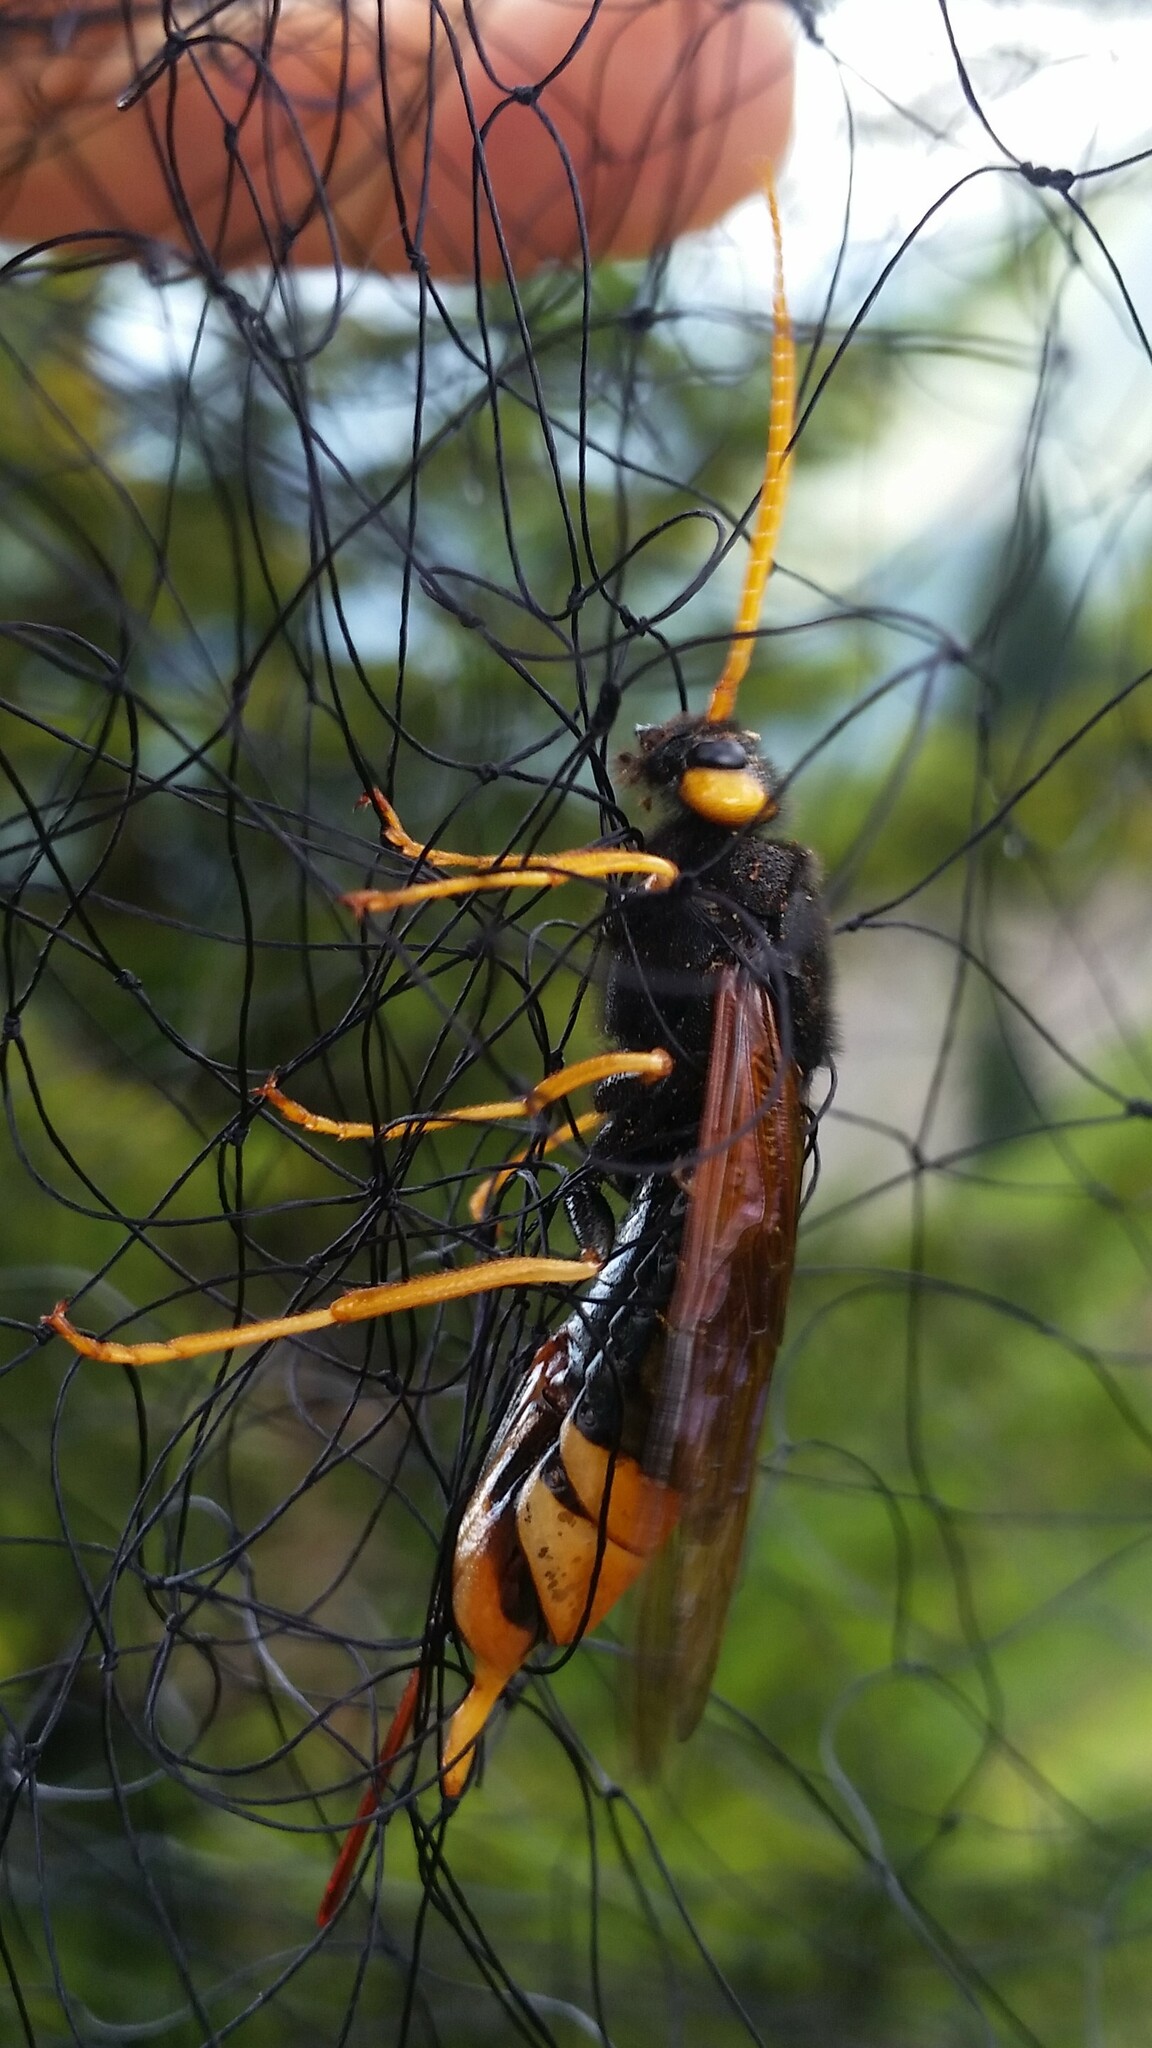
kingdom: Animalia
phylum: Arthropoda
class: Insecta
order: Hymenoptera
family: Siricidae
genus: Urocerus
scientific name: Urocerus gigas
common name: Giant woodwasp
